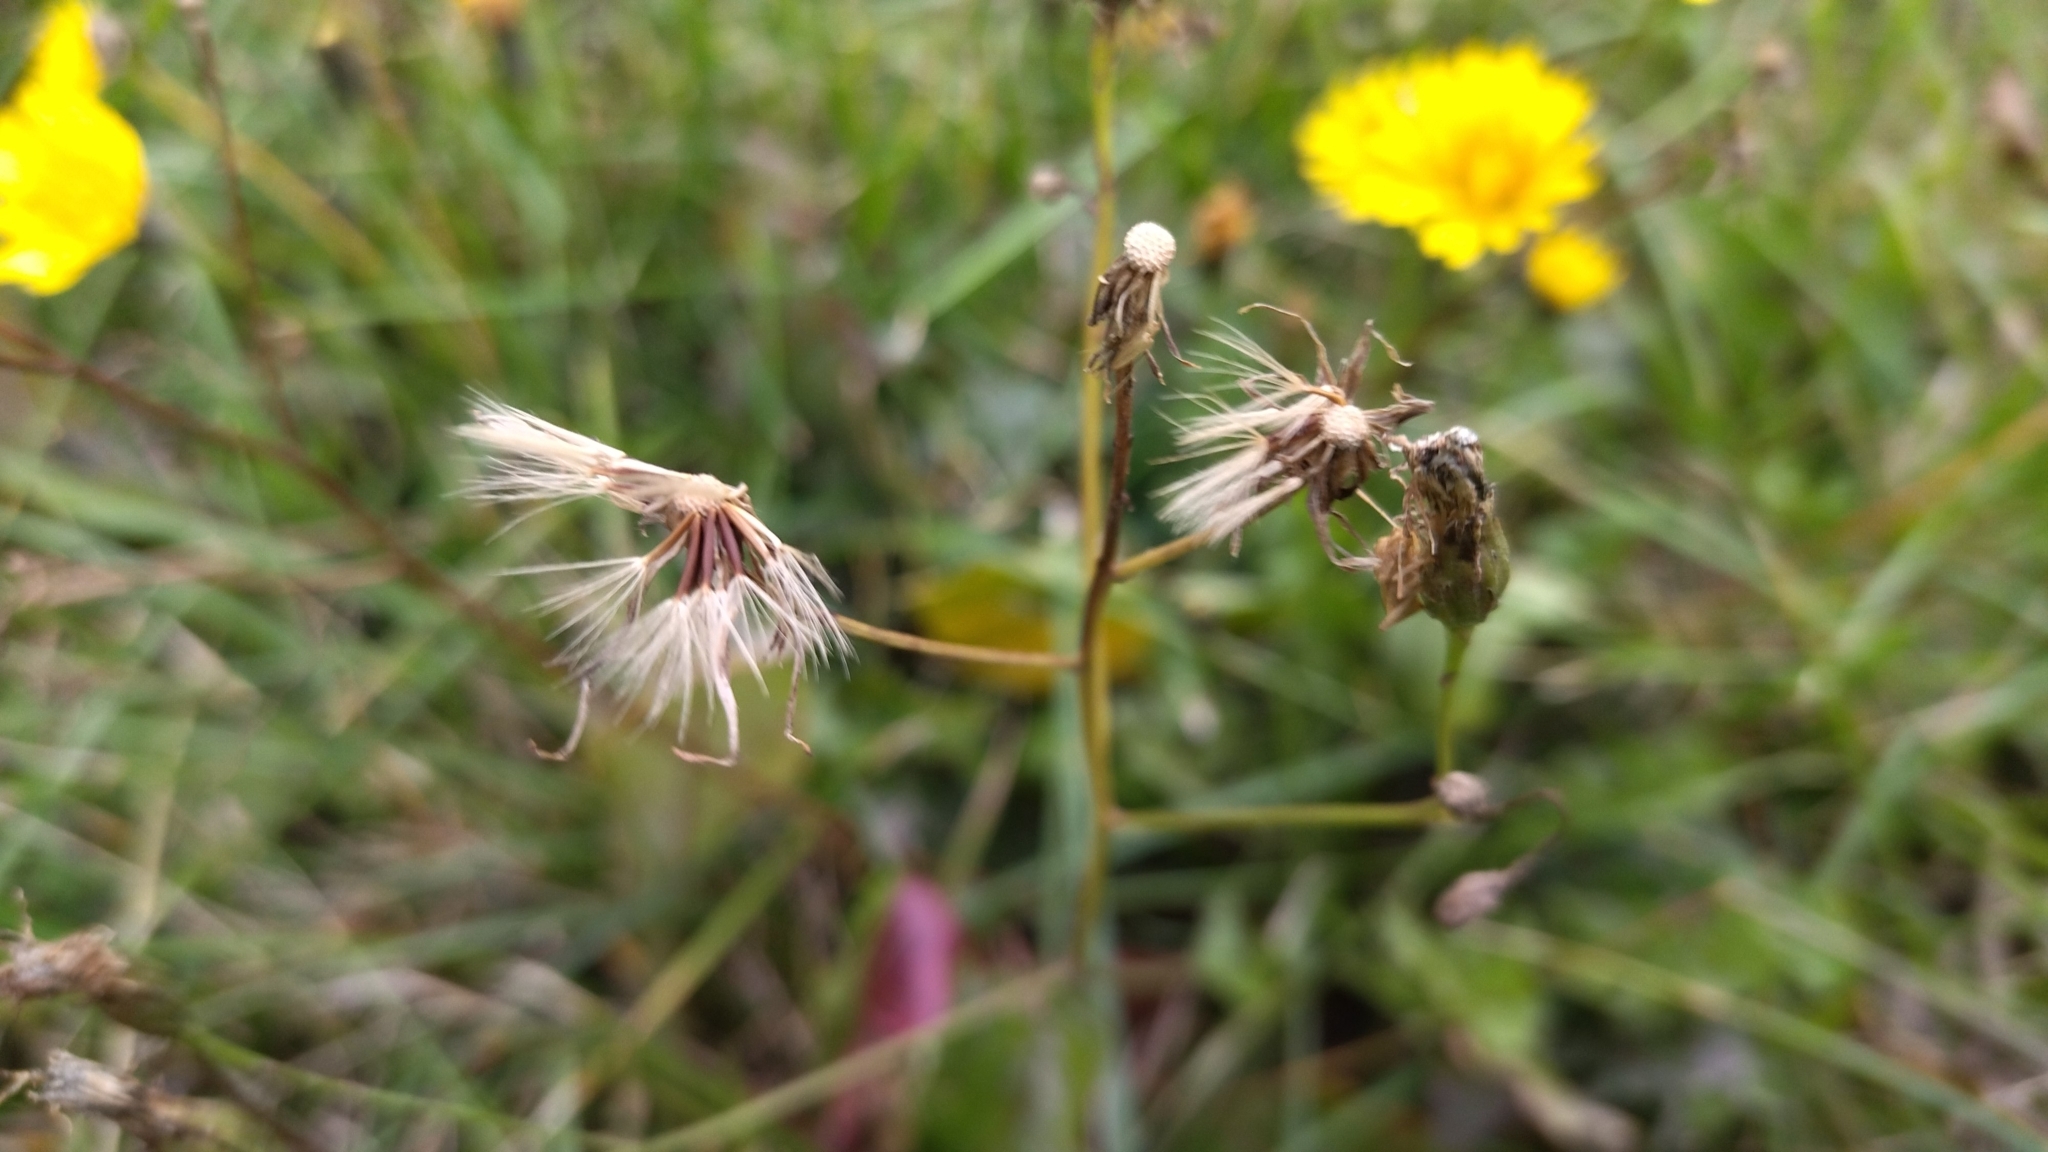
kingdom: Plantae
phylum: Tracheophyta
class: Magnoliopsida
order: Asterales
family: Asteraceae
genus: Scorzoneroides
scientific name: Scorzoneroides autumnalis
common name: Autumn hawkbit
